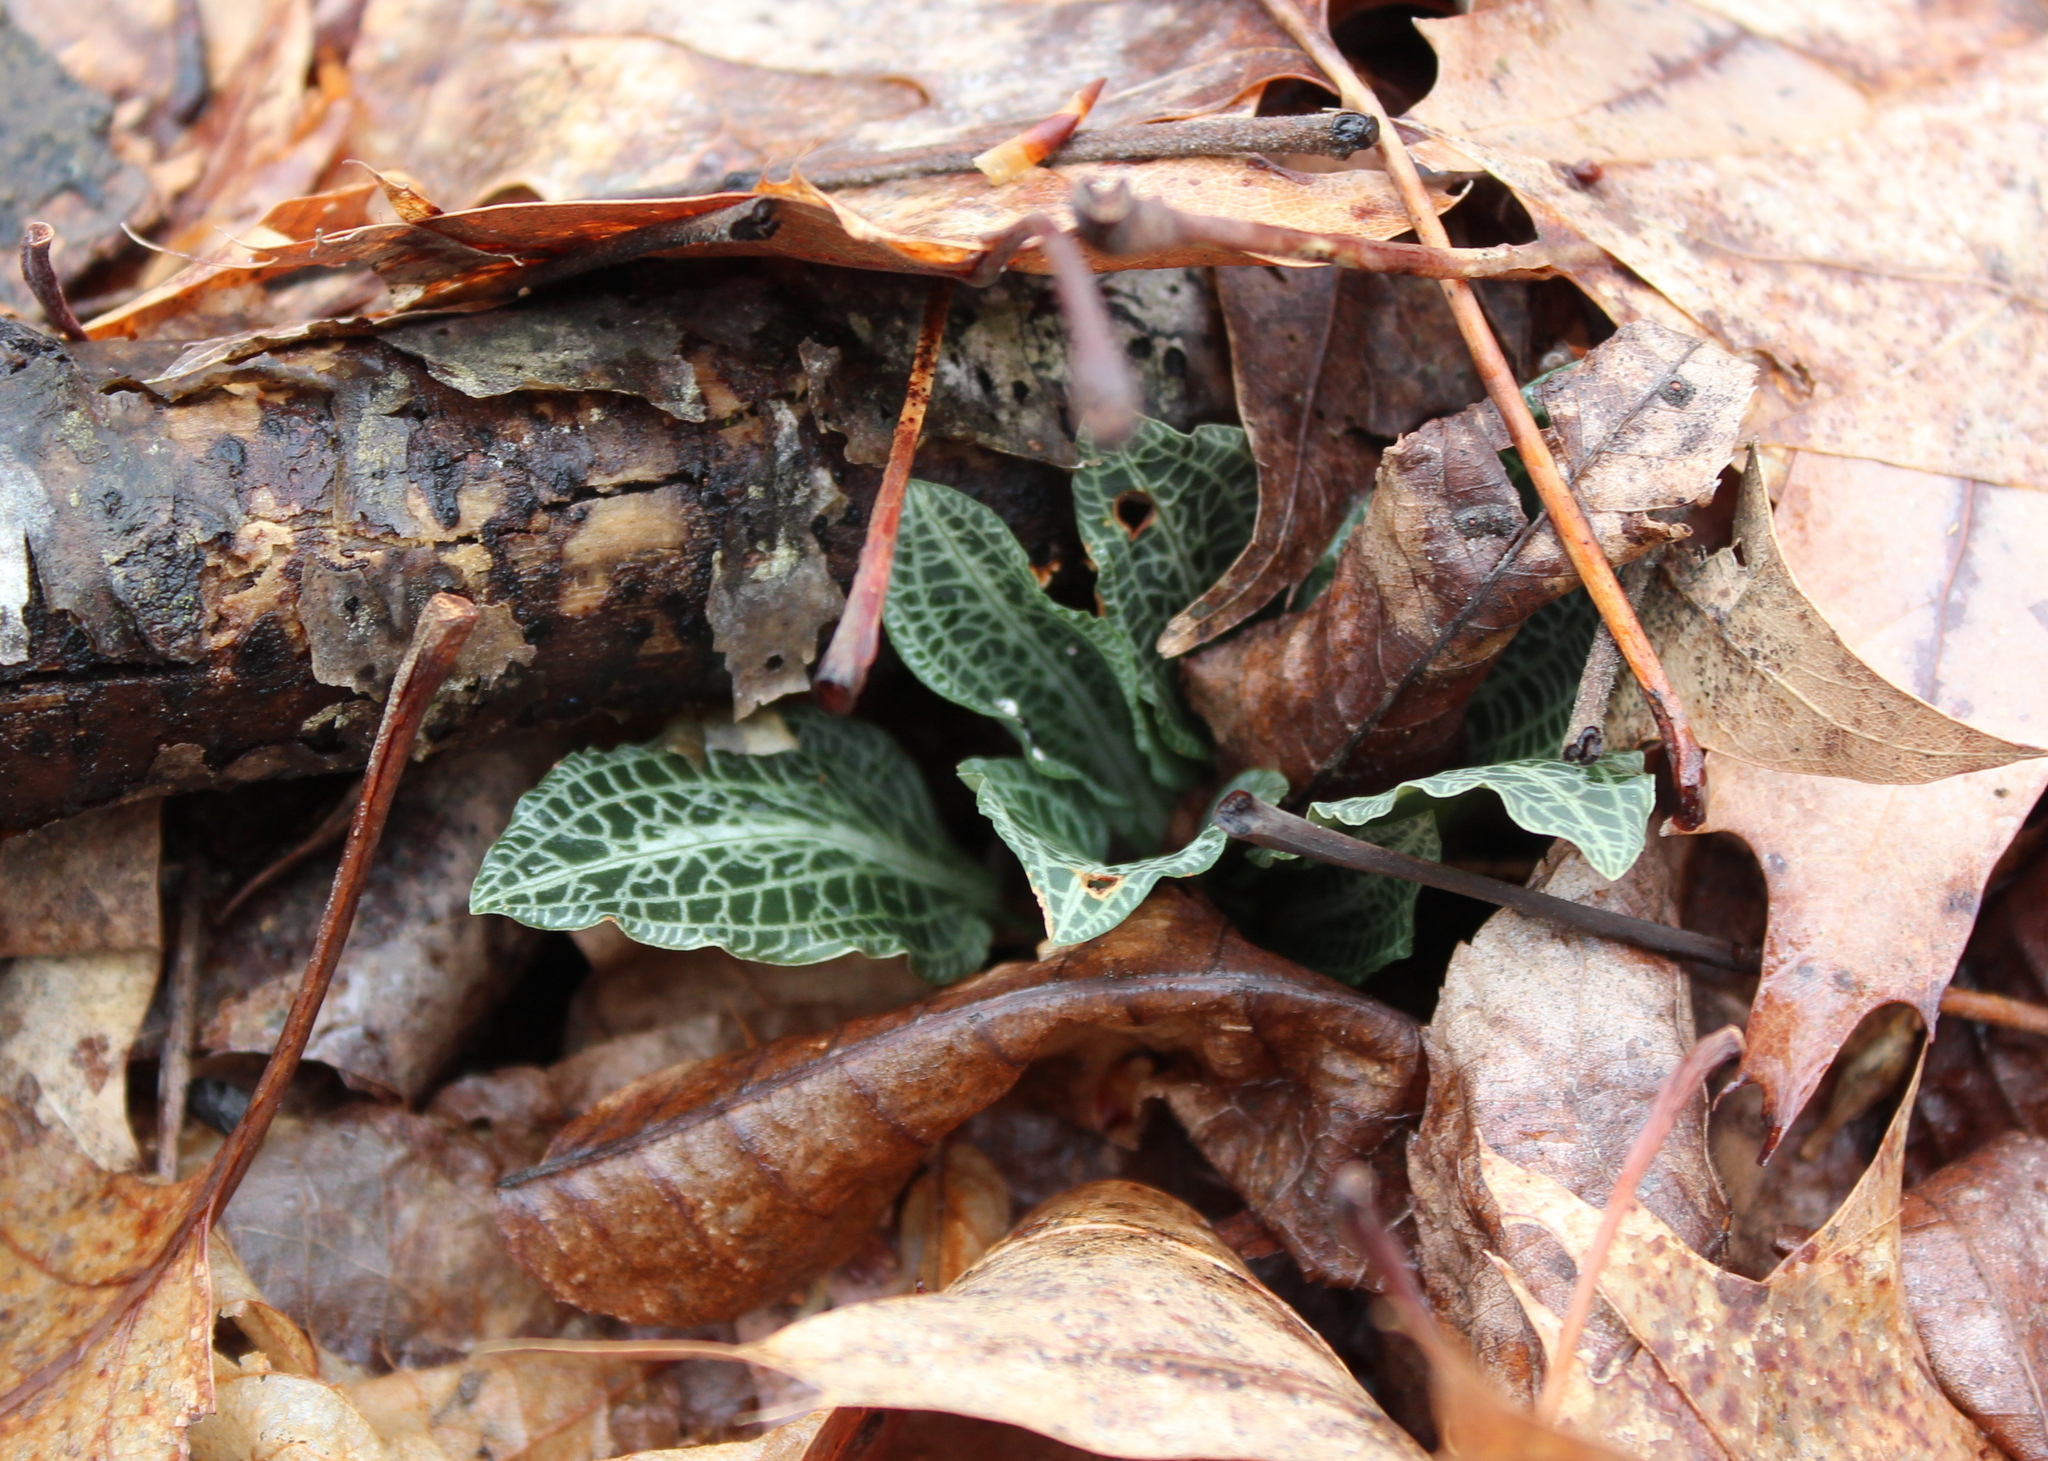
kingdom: Plantae
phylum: Tracheophyta
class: Liliopsida
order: Asparagales
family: Orchidaceae
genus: Goodyera
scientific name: Goodyera pubescens
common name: Downy rattlesnake-plantain
